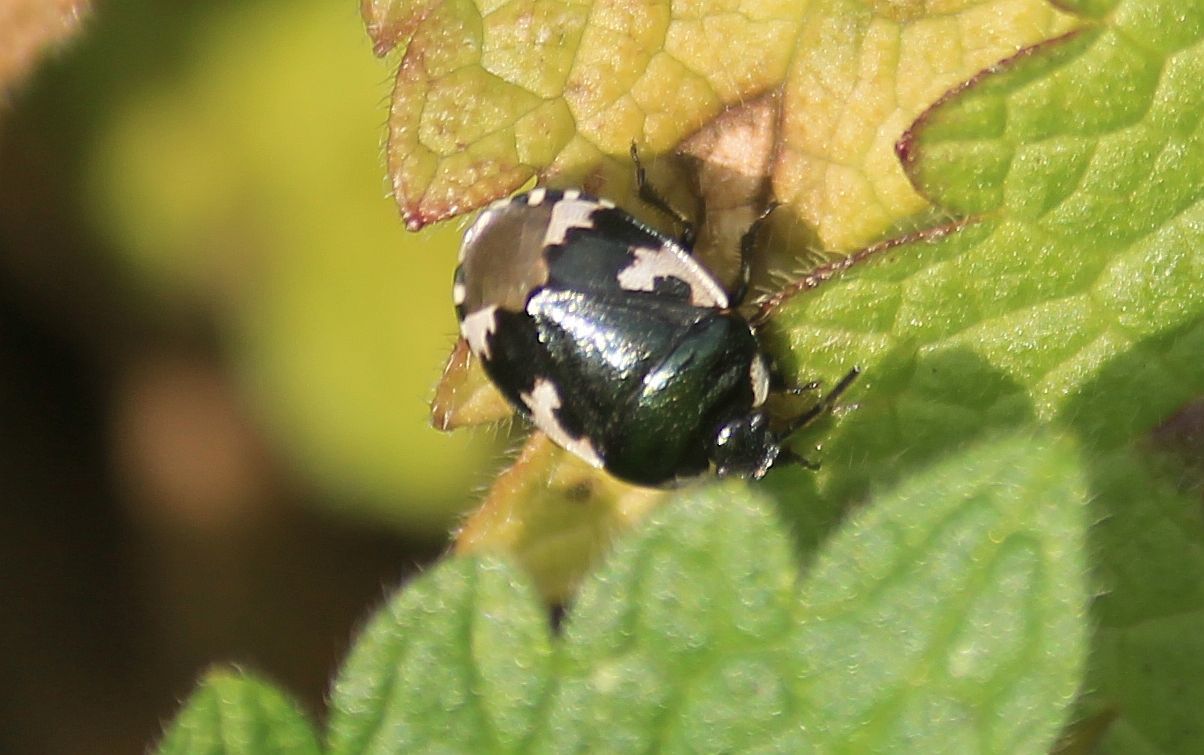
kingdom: Animalia
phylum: Arthropoda
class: Insecta
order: Hemiptera
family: Cydnidae
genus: Tritomegas
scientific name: Tritomegas bicolor
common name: Pied shieldbug
